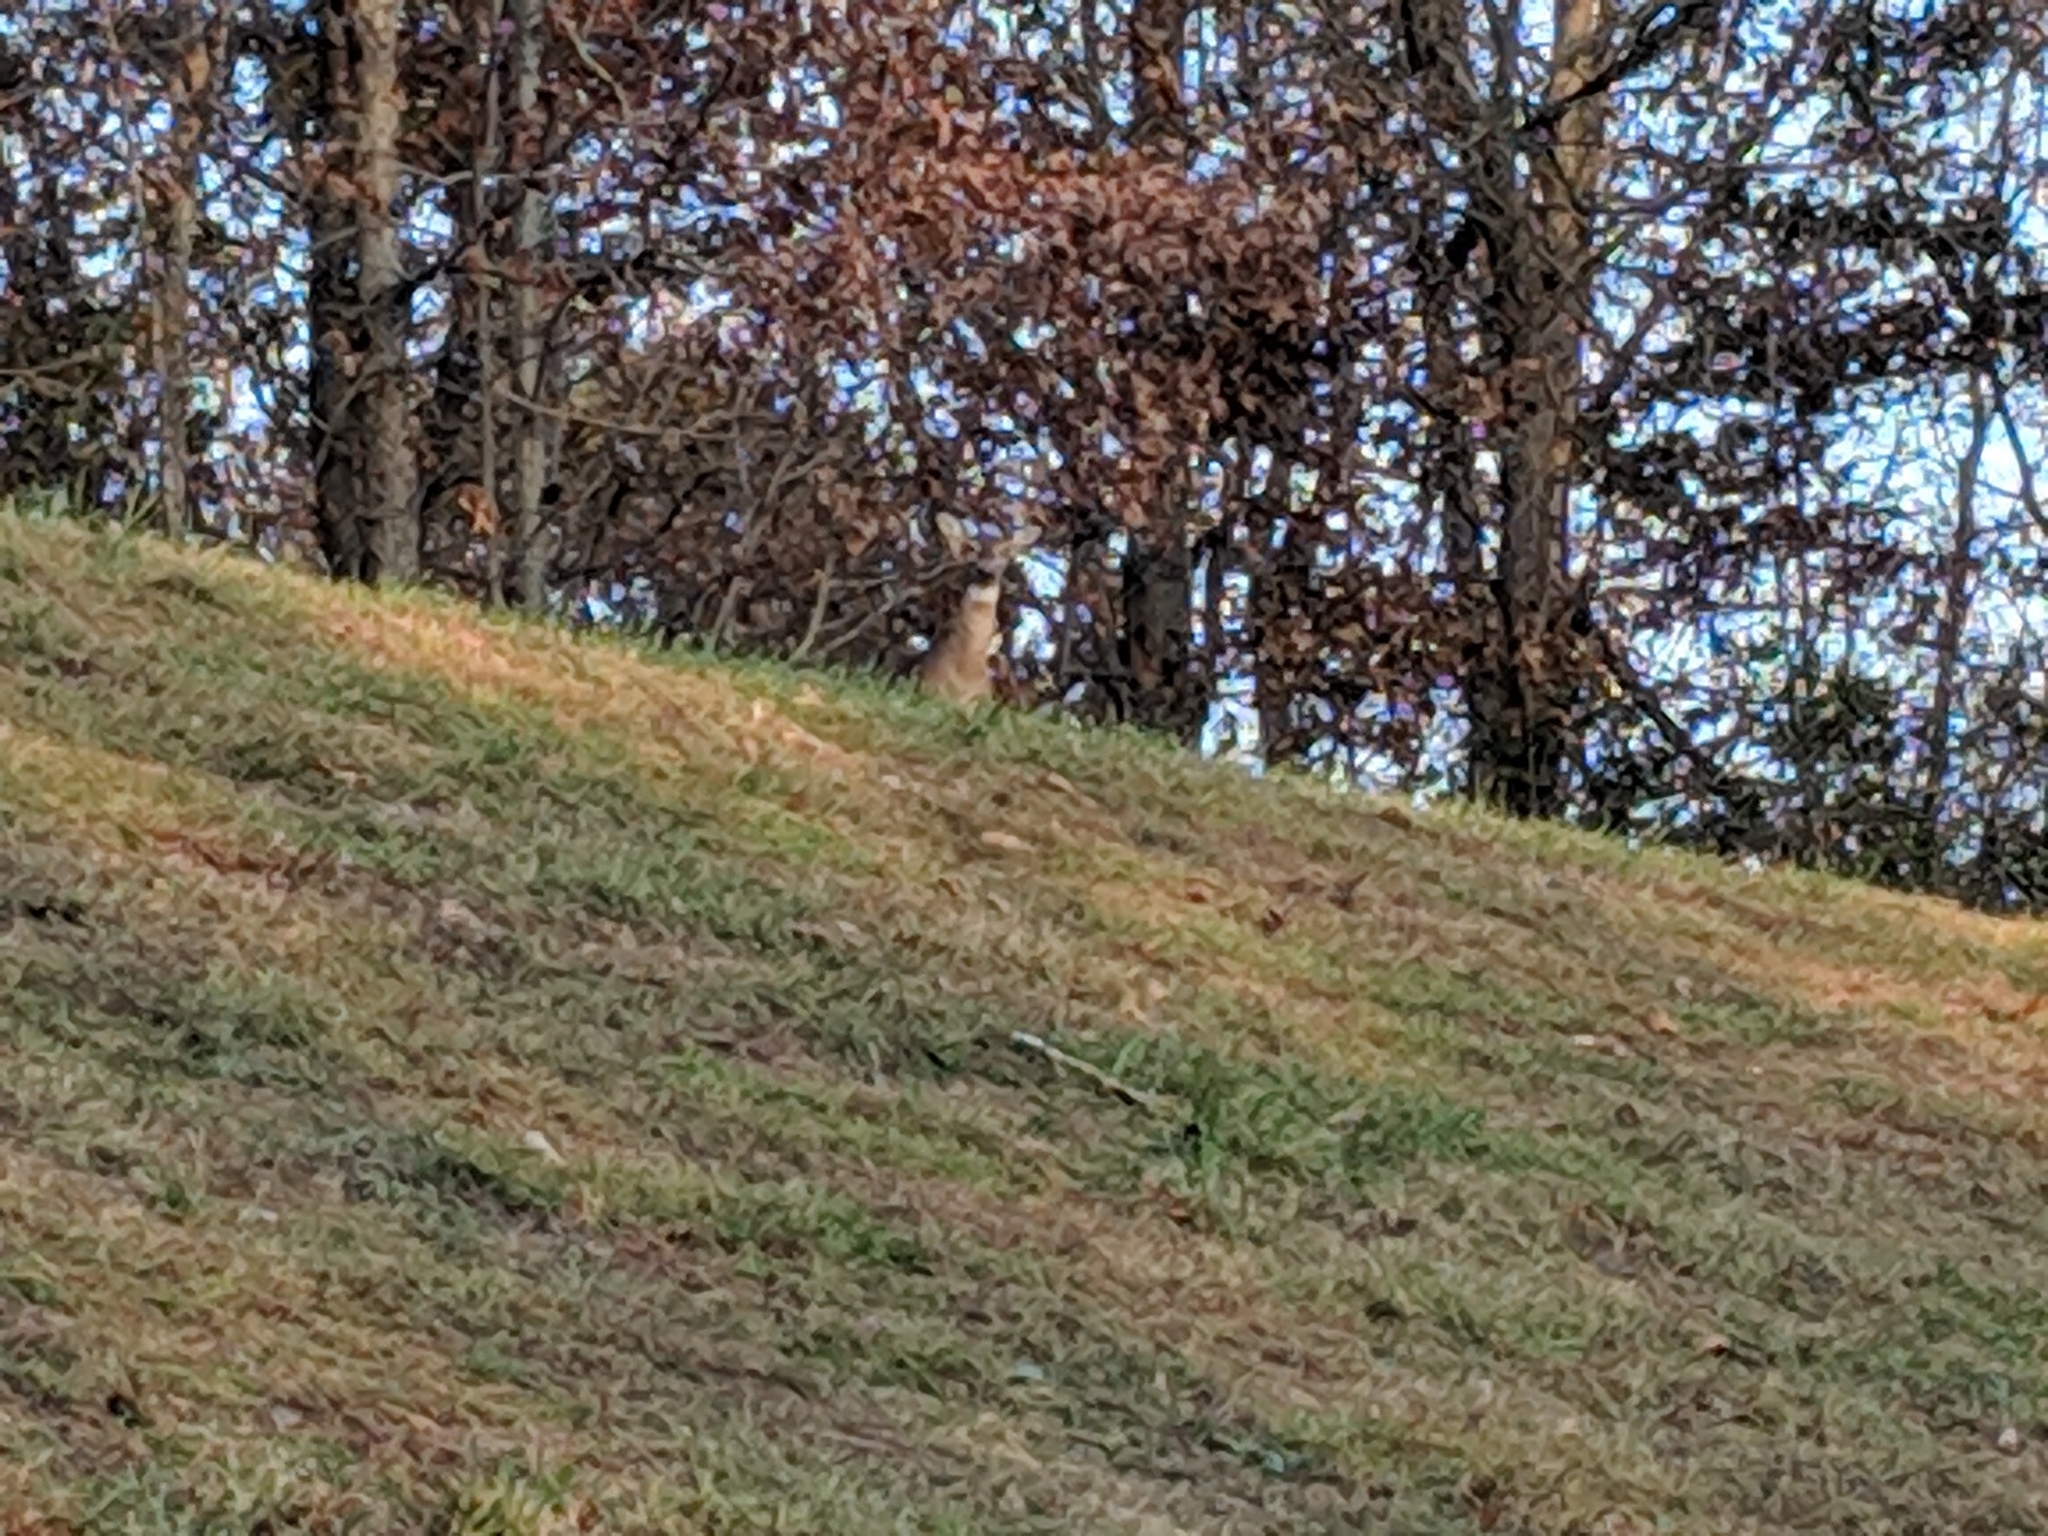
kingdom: Animalia
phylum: Chordata
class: Mammalia
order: Artiodactyla
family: Cervidae
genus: Odocoileus
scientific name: Odocoileus virginianus
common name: White-tailed deer
